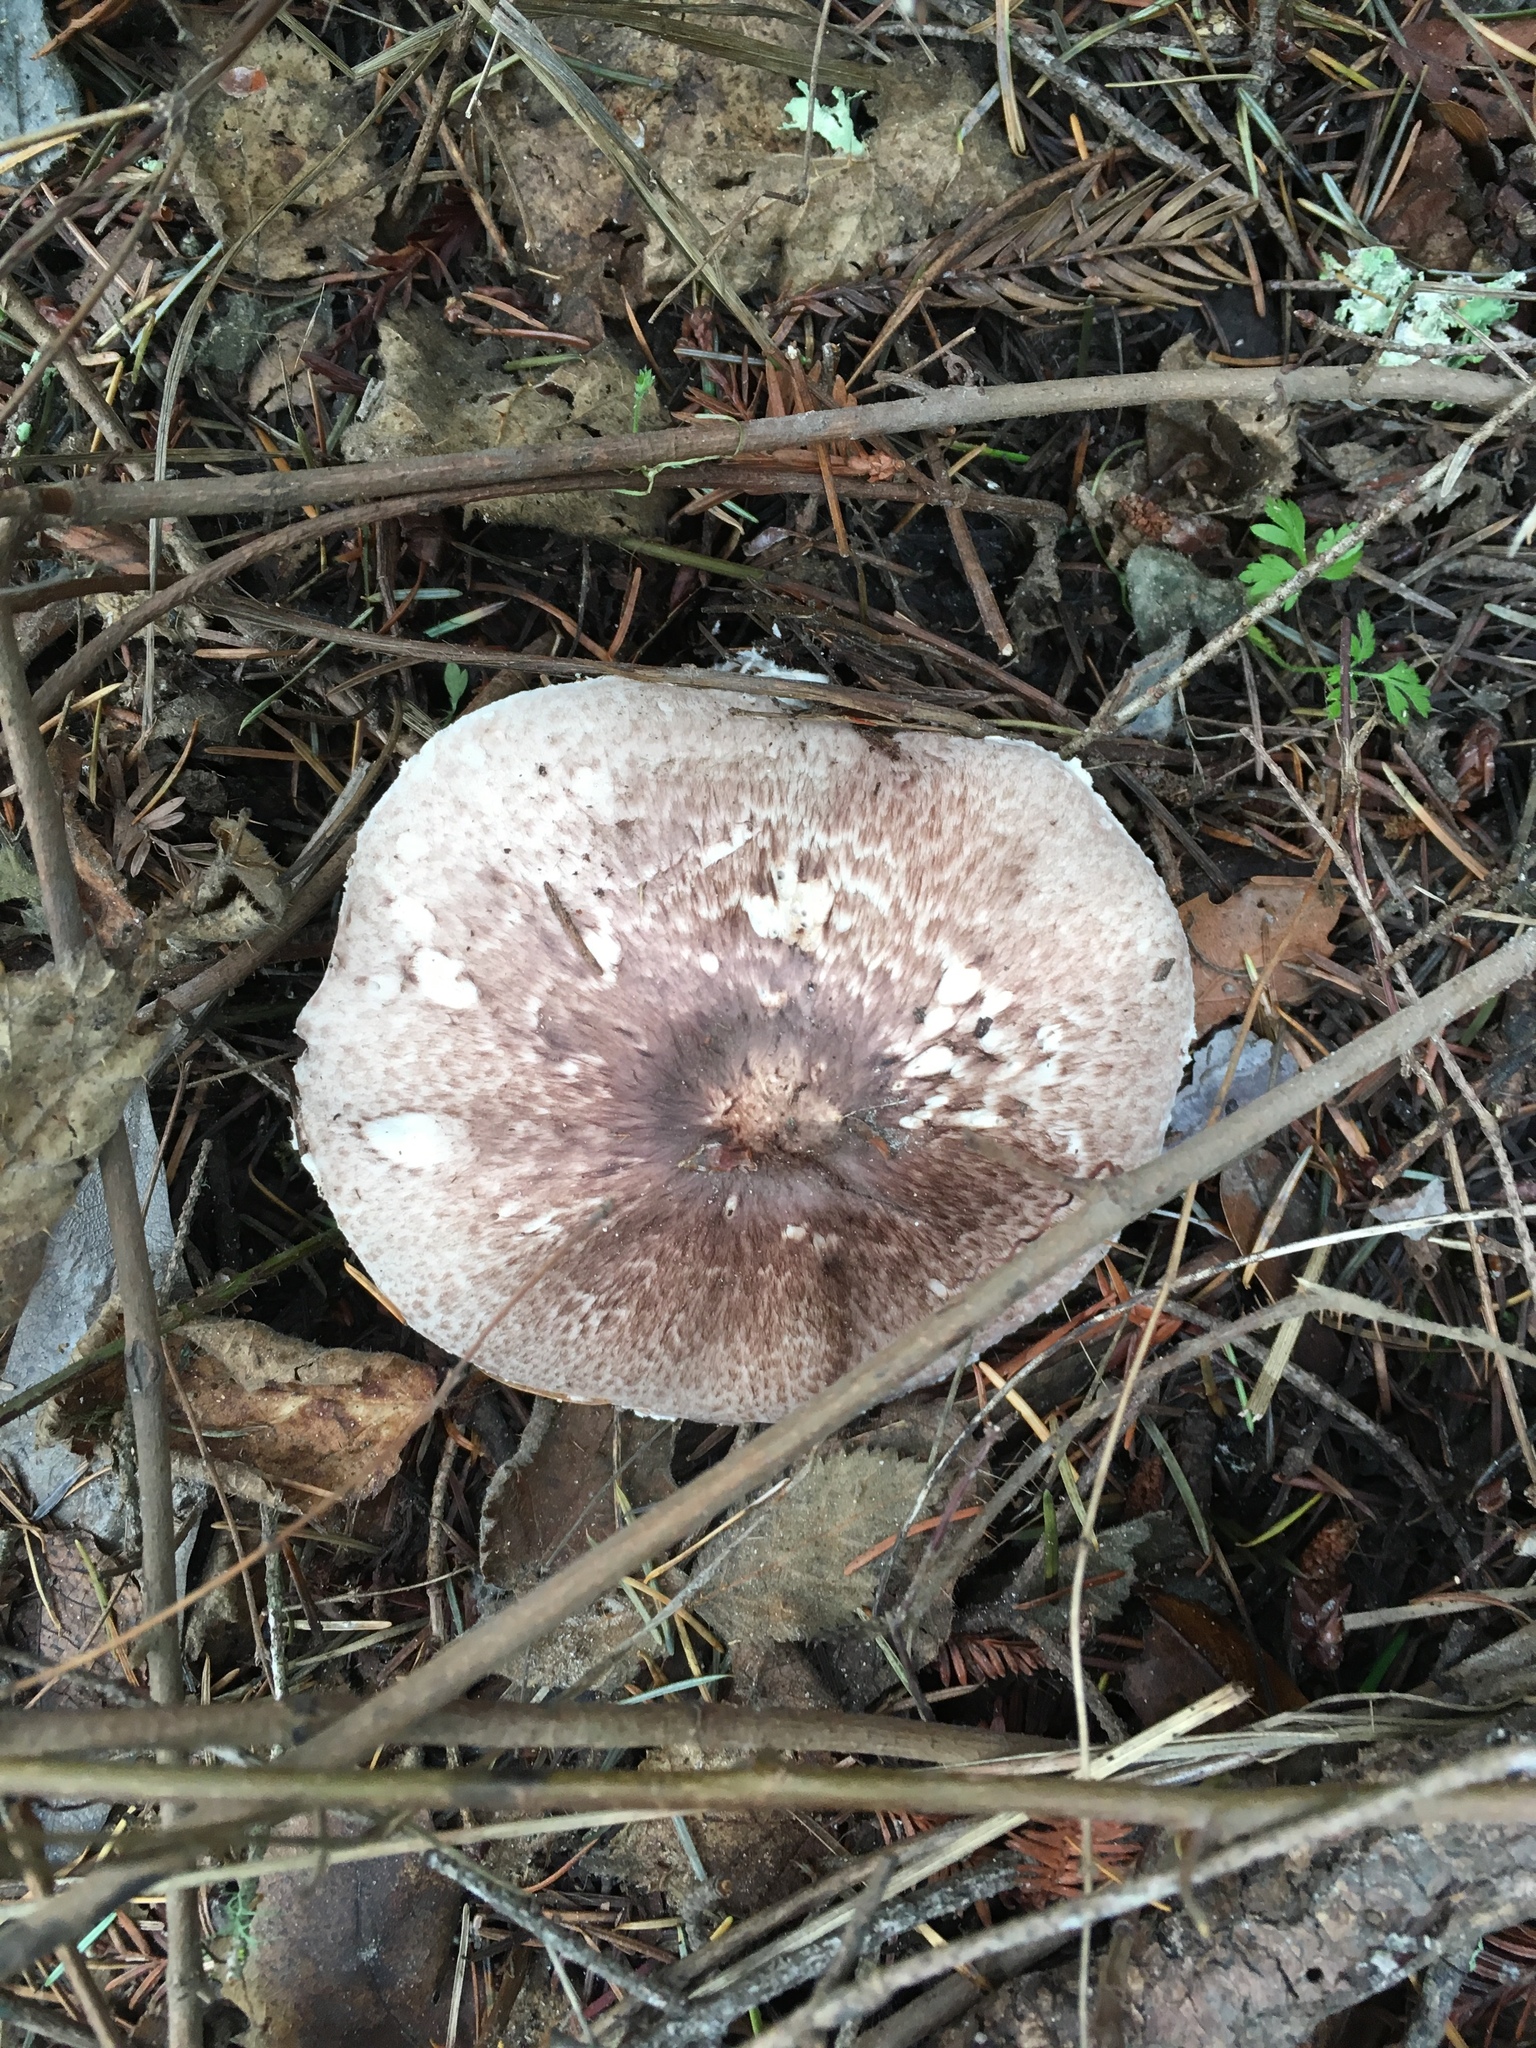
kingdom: Fungi
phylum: Basidiomycota
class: Agaricomycetes
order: Agaricales
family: Agaricaceae
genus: Agaricus
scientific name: Agaricus subrutilescens
